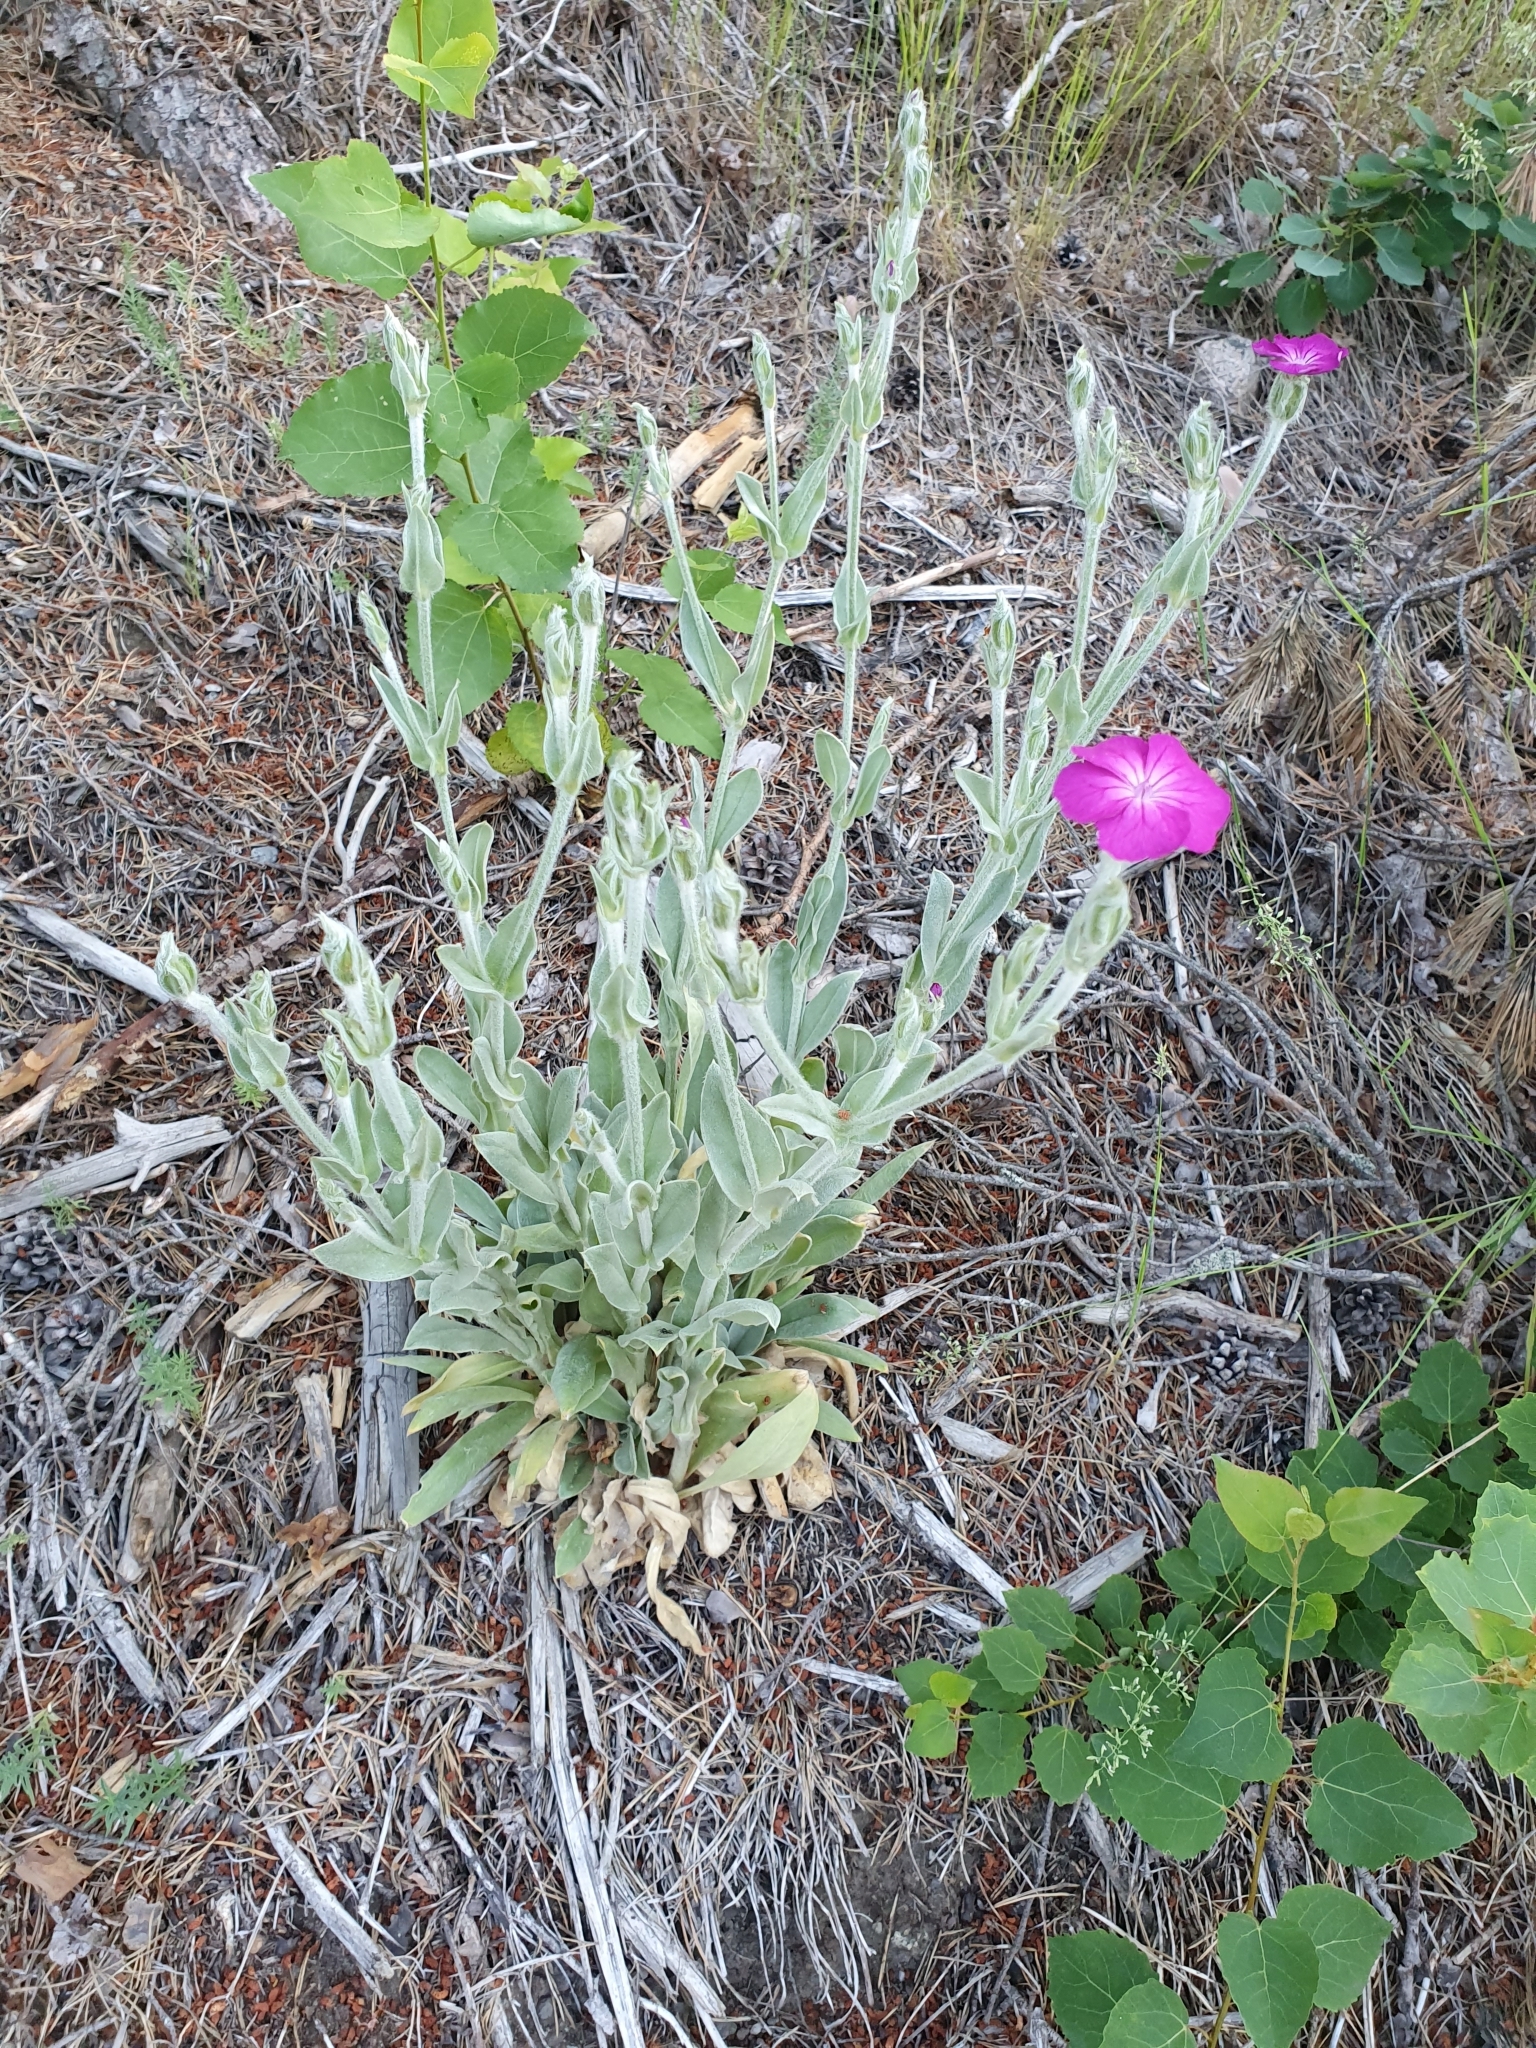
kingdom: Plantae
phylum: Tracheophyta
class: Magnoliopsida
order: Caryophyllales
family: Caryophyllaceae
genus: Silene
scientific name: Silene coronaria
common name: Rose campion
